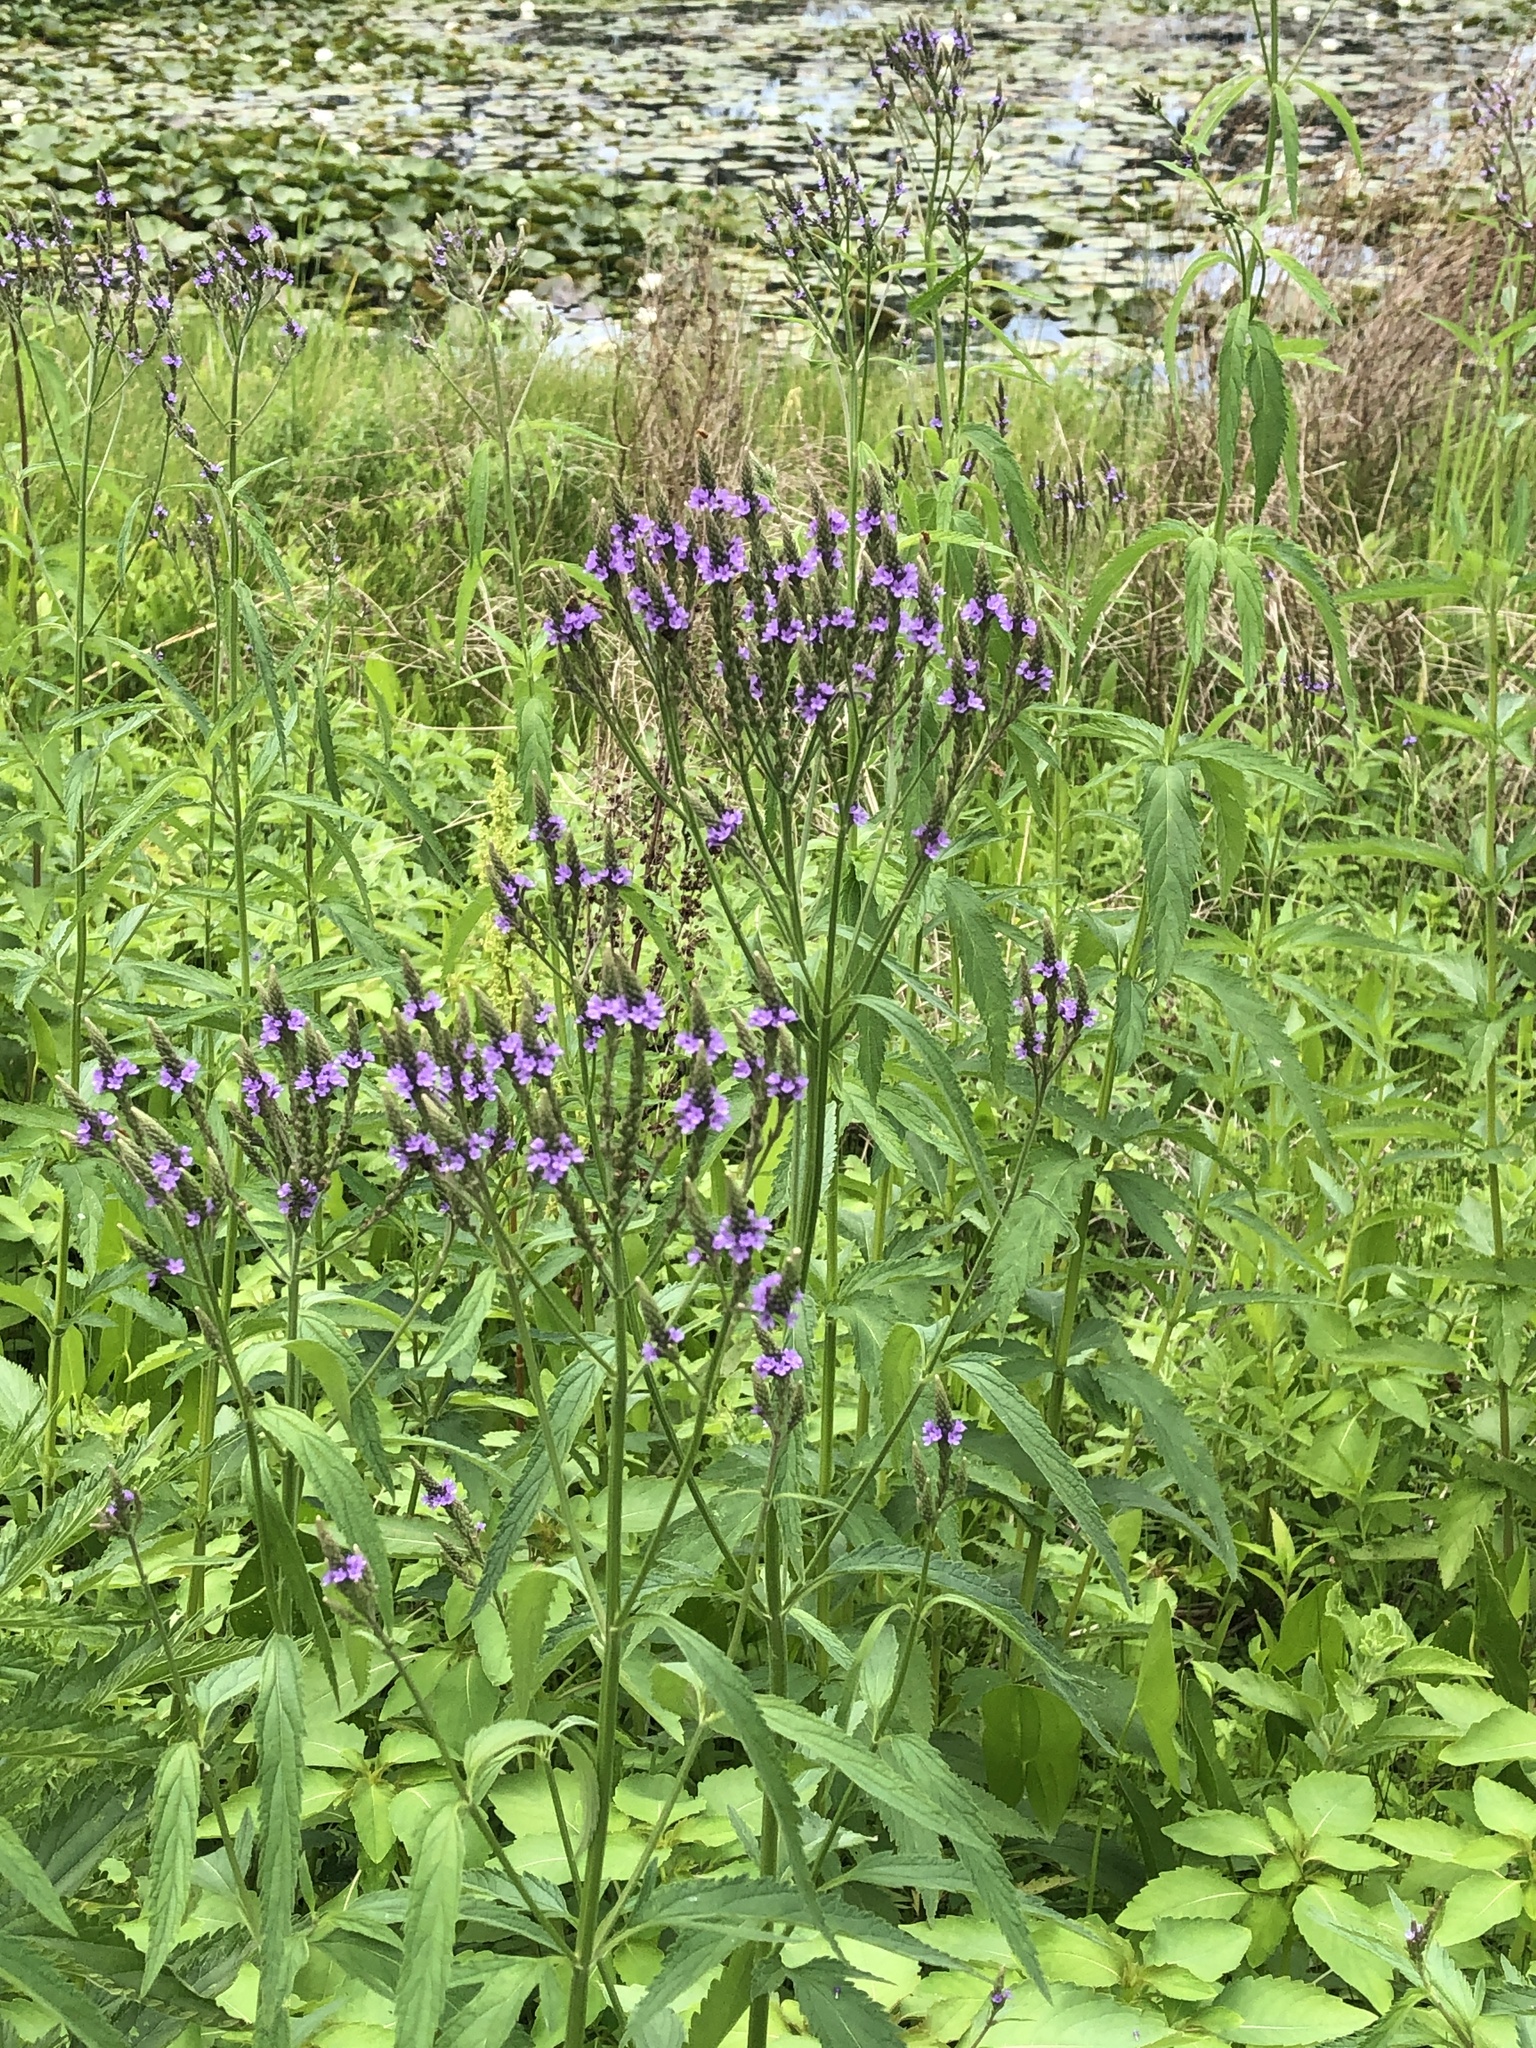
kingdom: Plantae
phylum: Tracheophyta
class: Magnoliopsida
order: Lamiales
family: Verbenaceae
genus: Verbena
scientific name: Verbena hastata
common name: American blue vervain
